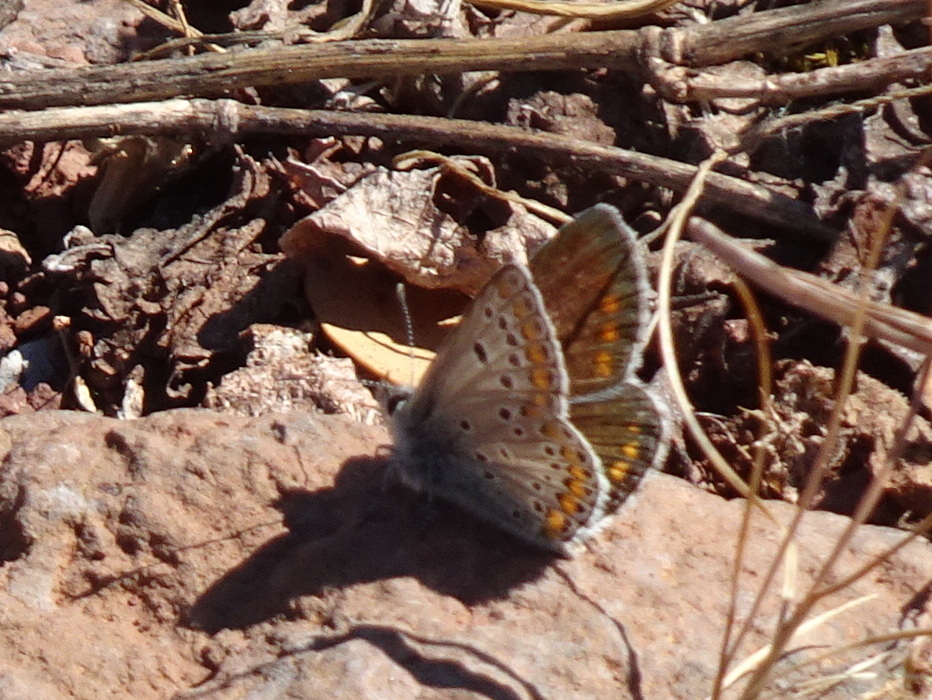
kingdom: Animalia
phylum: Arthropoda
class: Insecta
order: Lepidoptera
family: Lycaenidae
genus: Aricia
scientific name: Aricia agestis
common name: Brown argus
